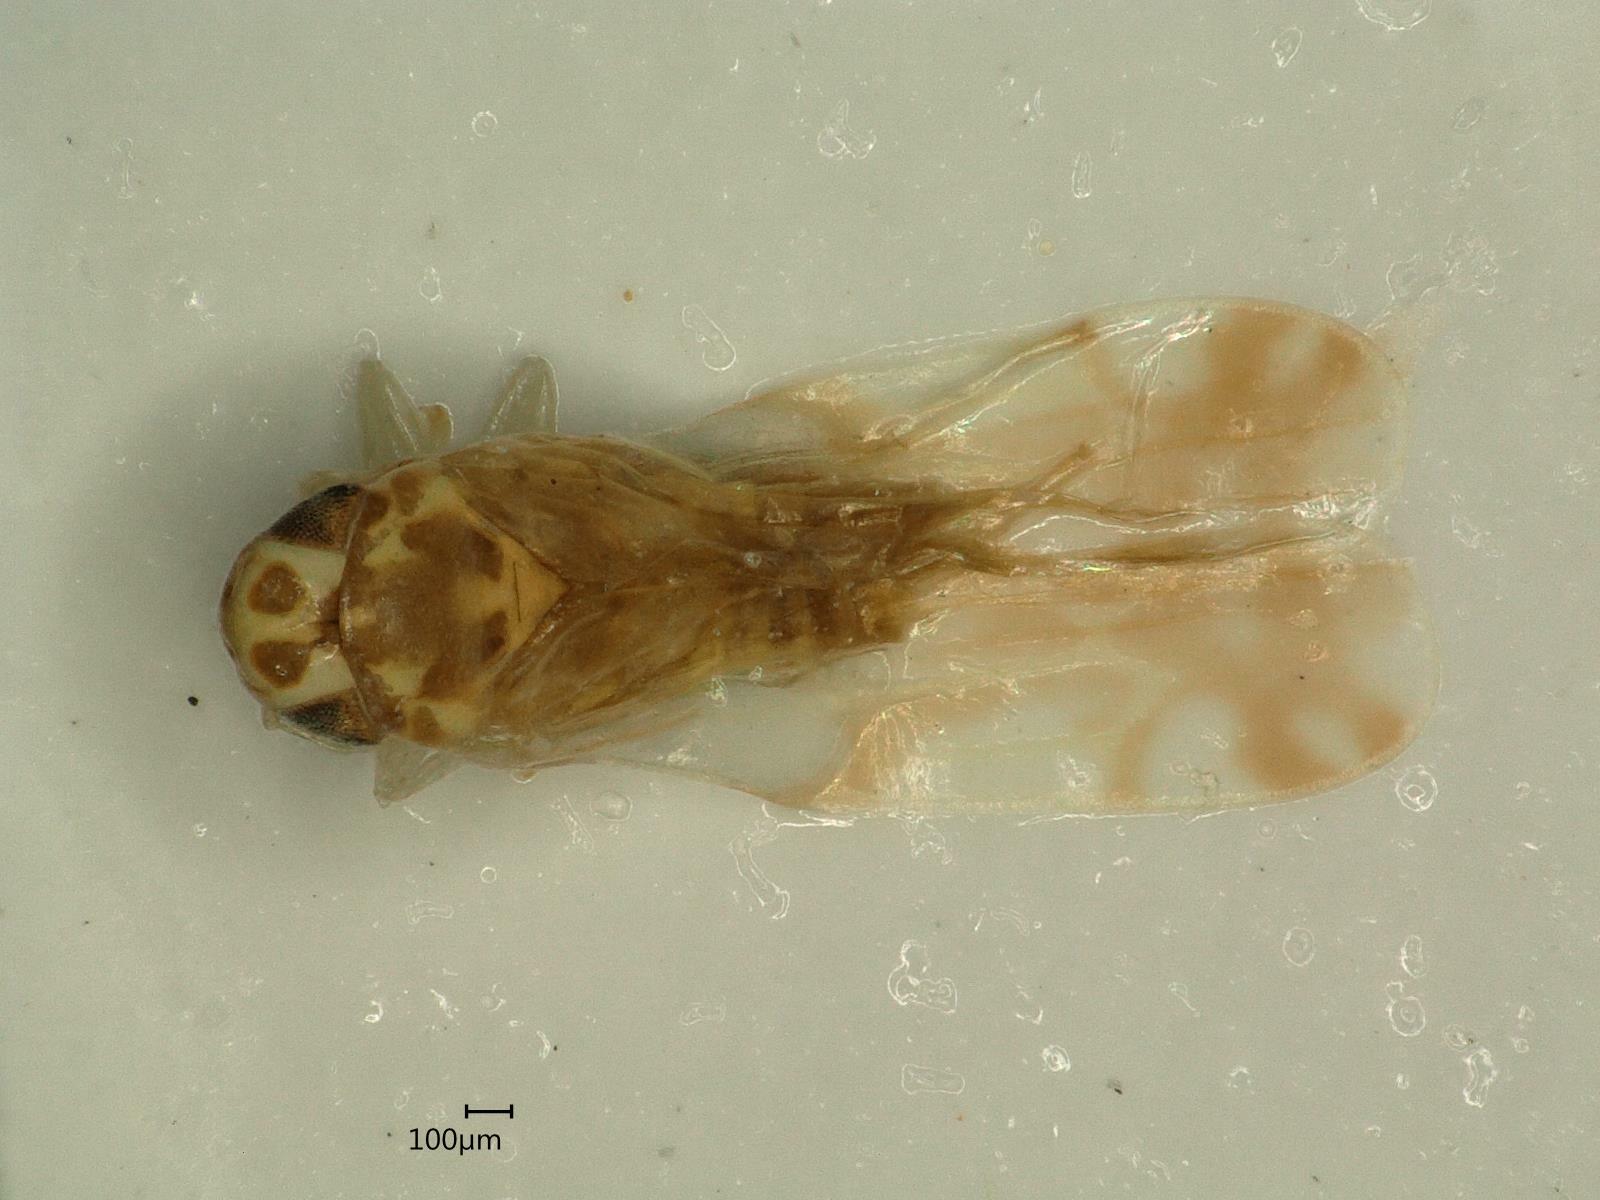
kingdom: Animalia
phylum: Arthropoda
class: Insecta
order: Hemiptera
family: Cicadellidae
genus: Eupteryx
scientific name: Eupteryx urticae
